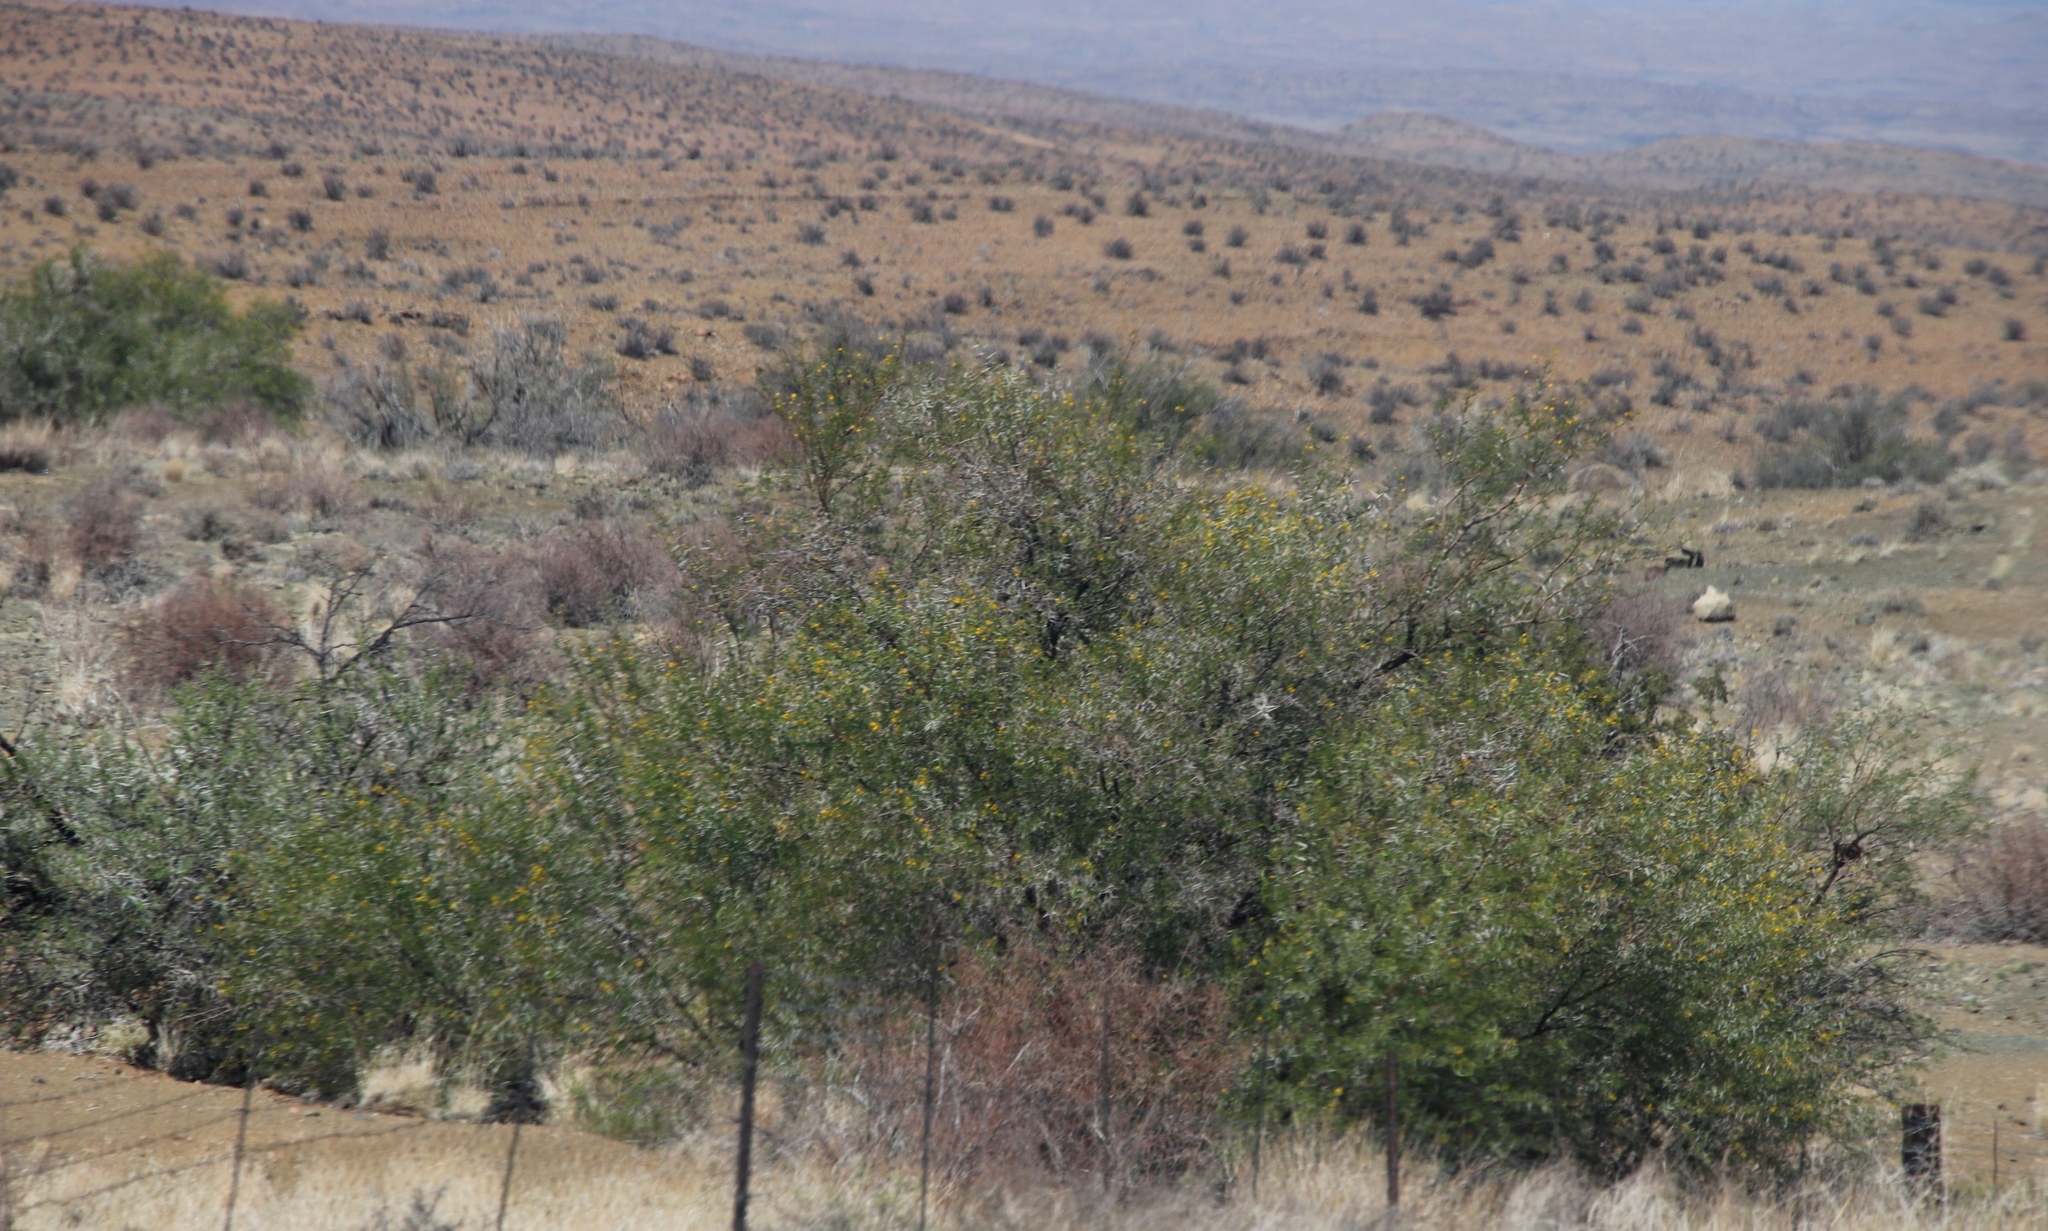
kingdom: Plantae
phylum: Tracheophyta
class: Magnoliopsida
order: Fabales
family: Fabaceae
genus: Vachellia
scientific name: Vachellia karroo
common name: Sweet thorn
